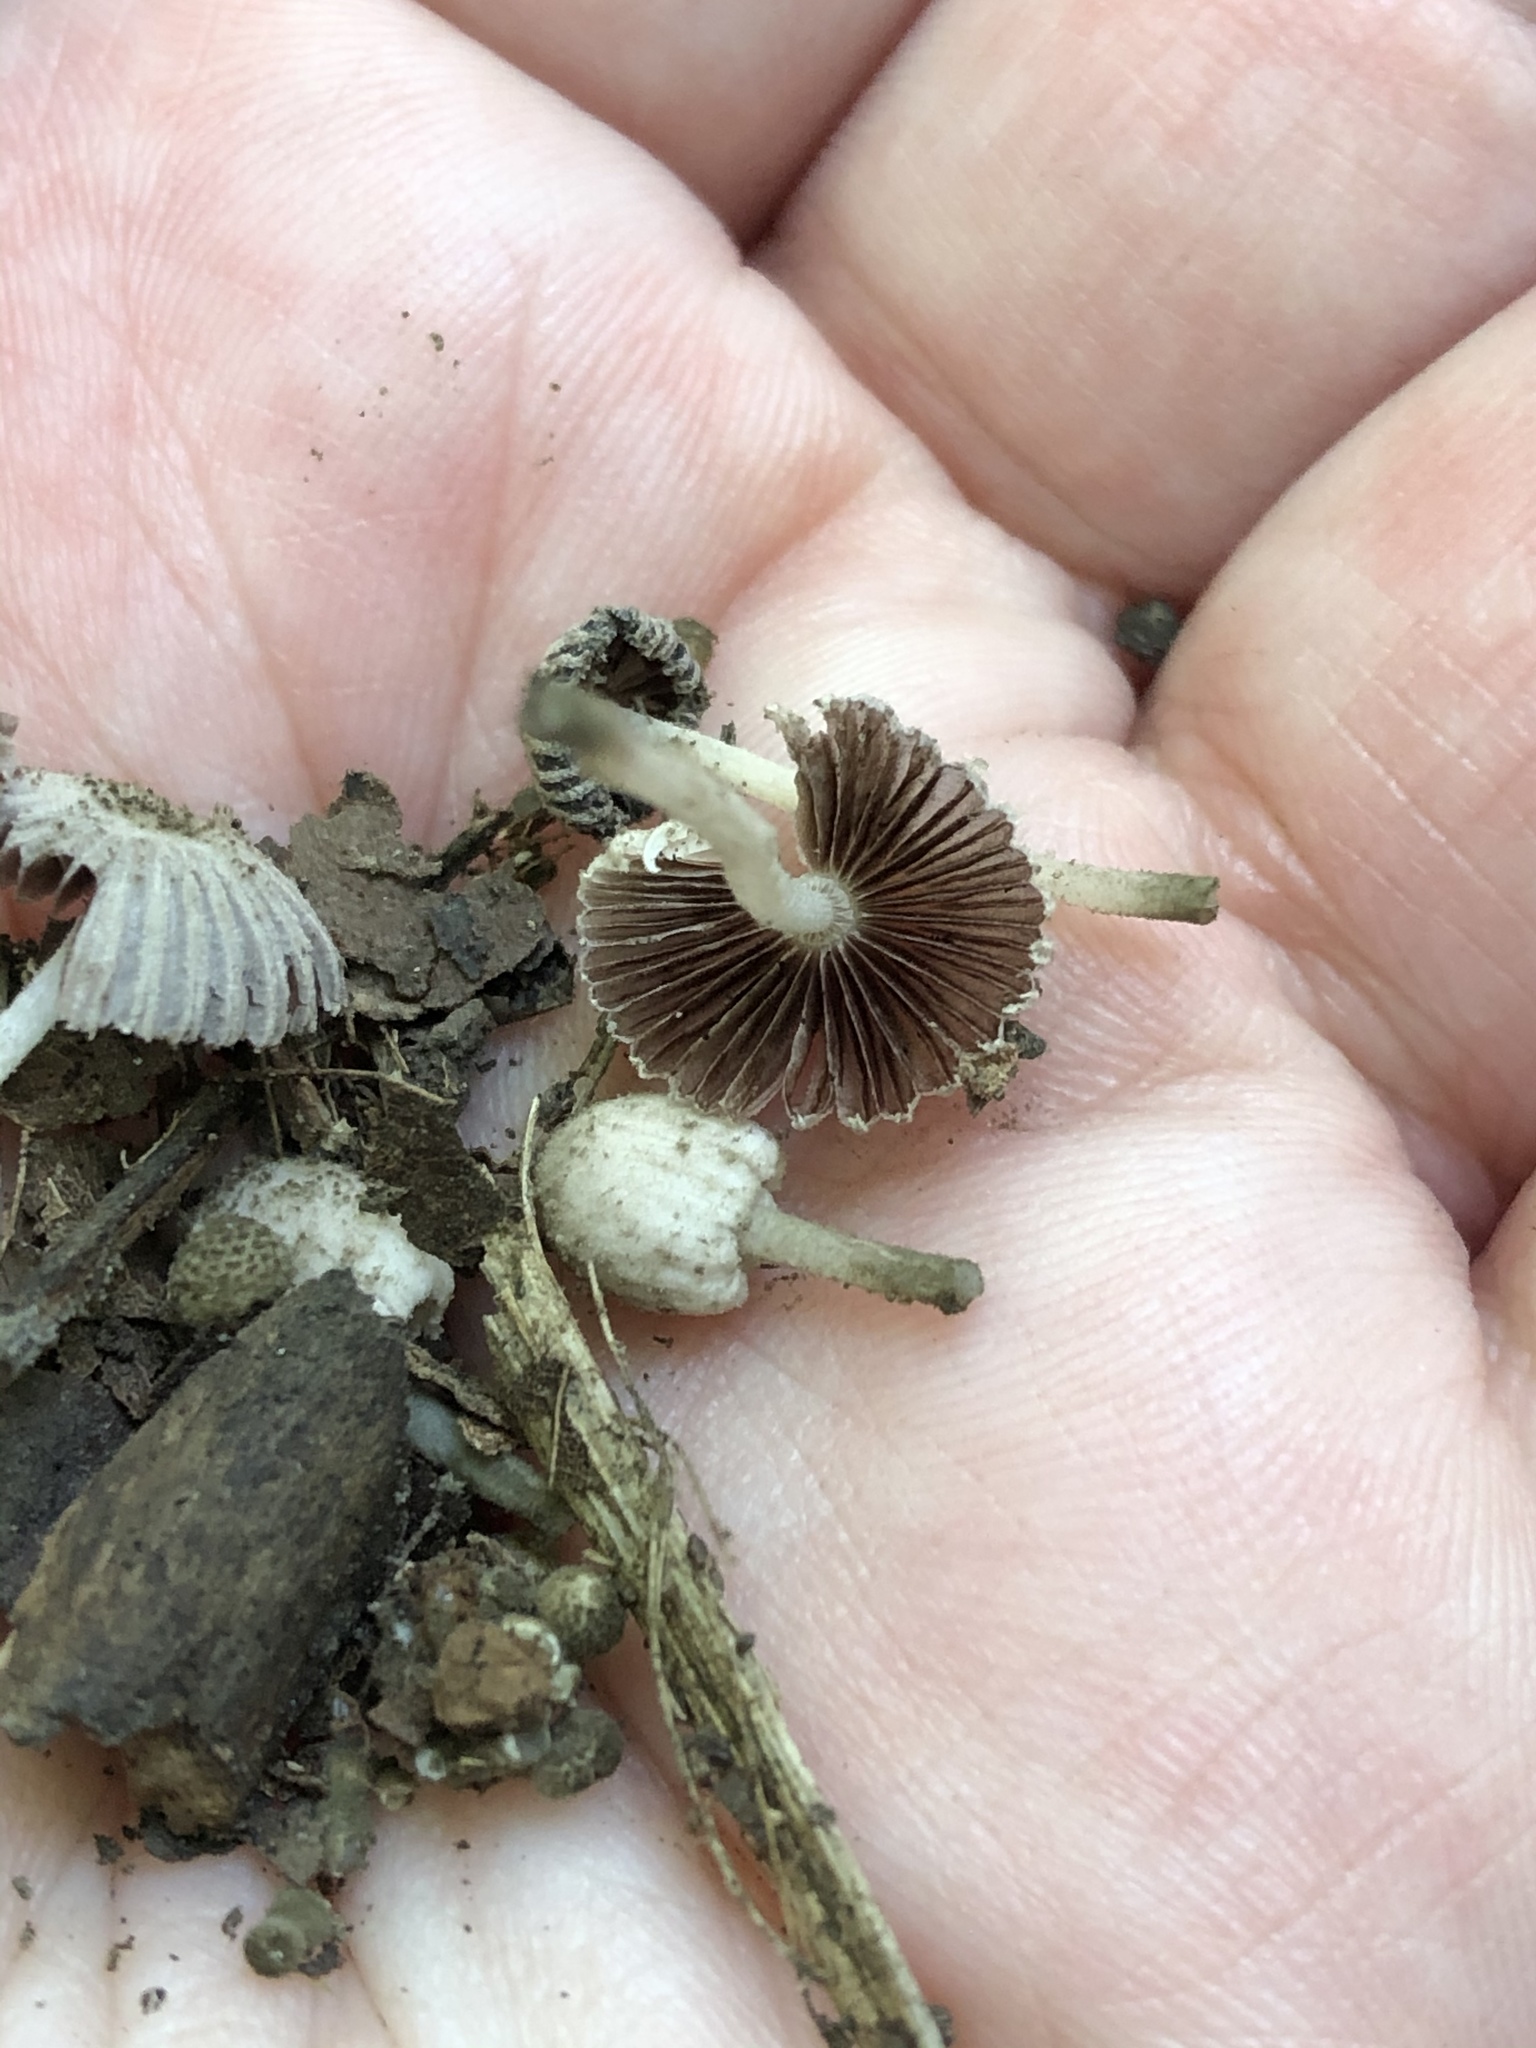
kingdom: Fungi
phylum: Basidiomycota
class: Agaricomycetes
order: Agaricales
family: Psathyrellaceae
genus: Coprinellus
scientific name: Coprinellus disseminatus
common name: Fairies' bonnets
